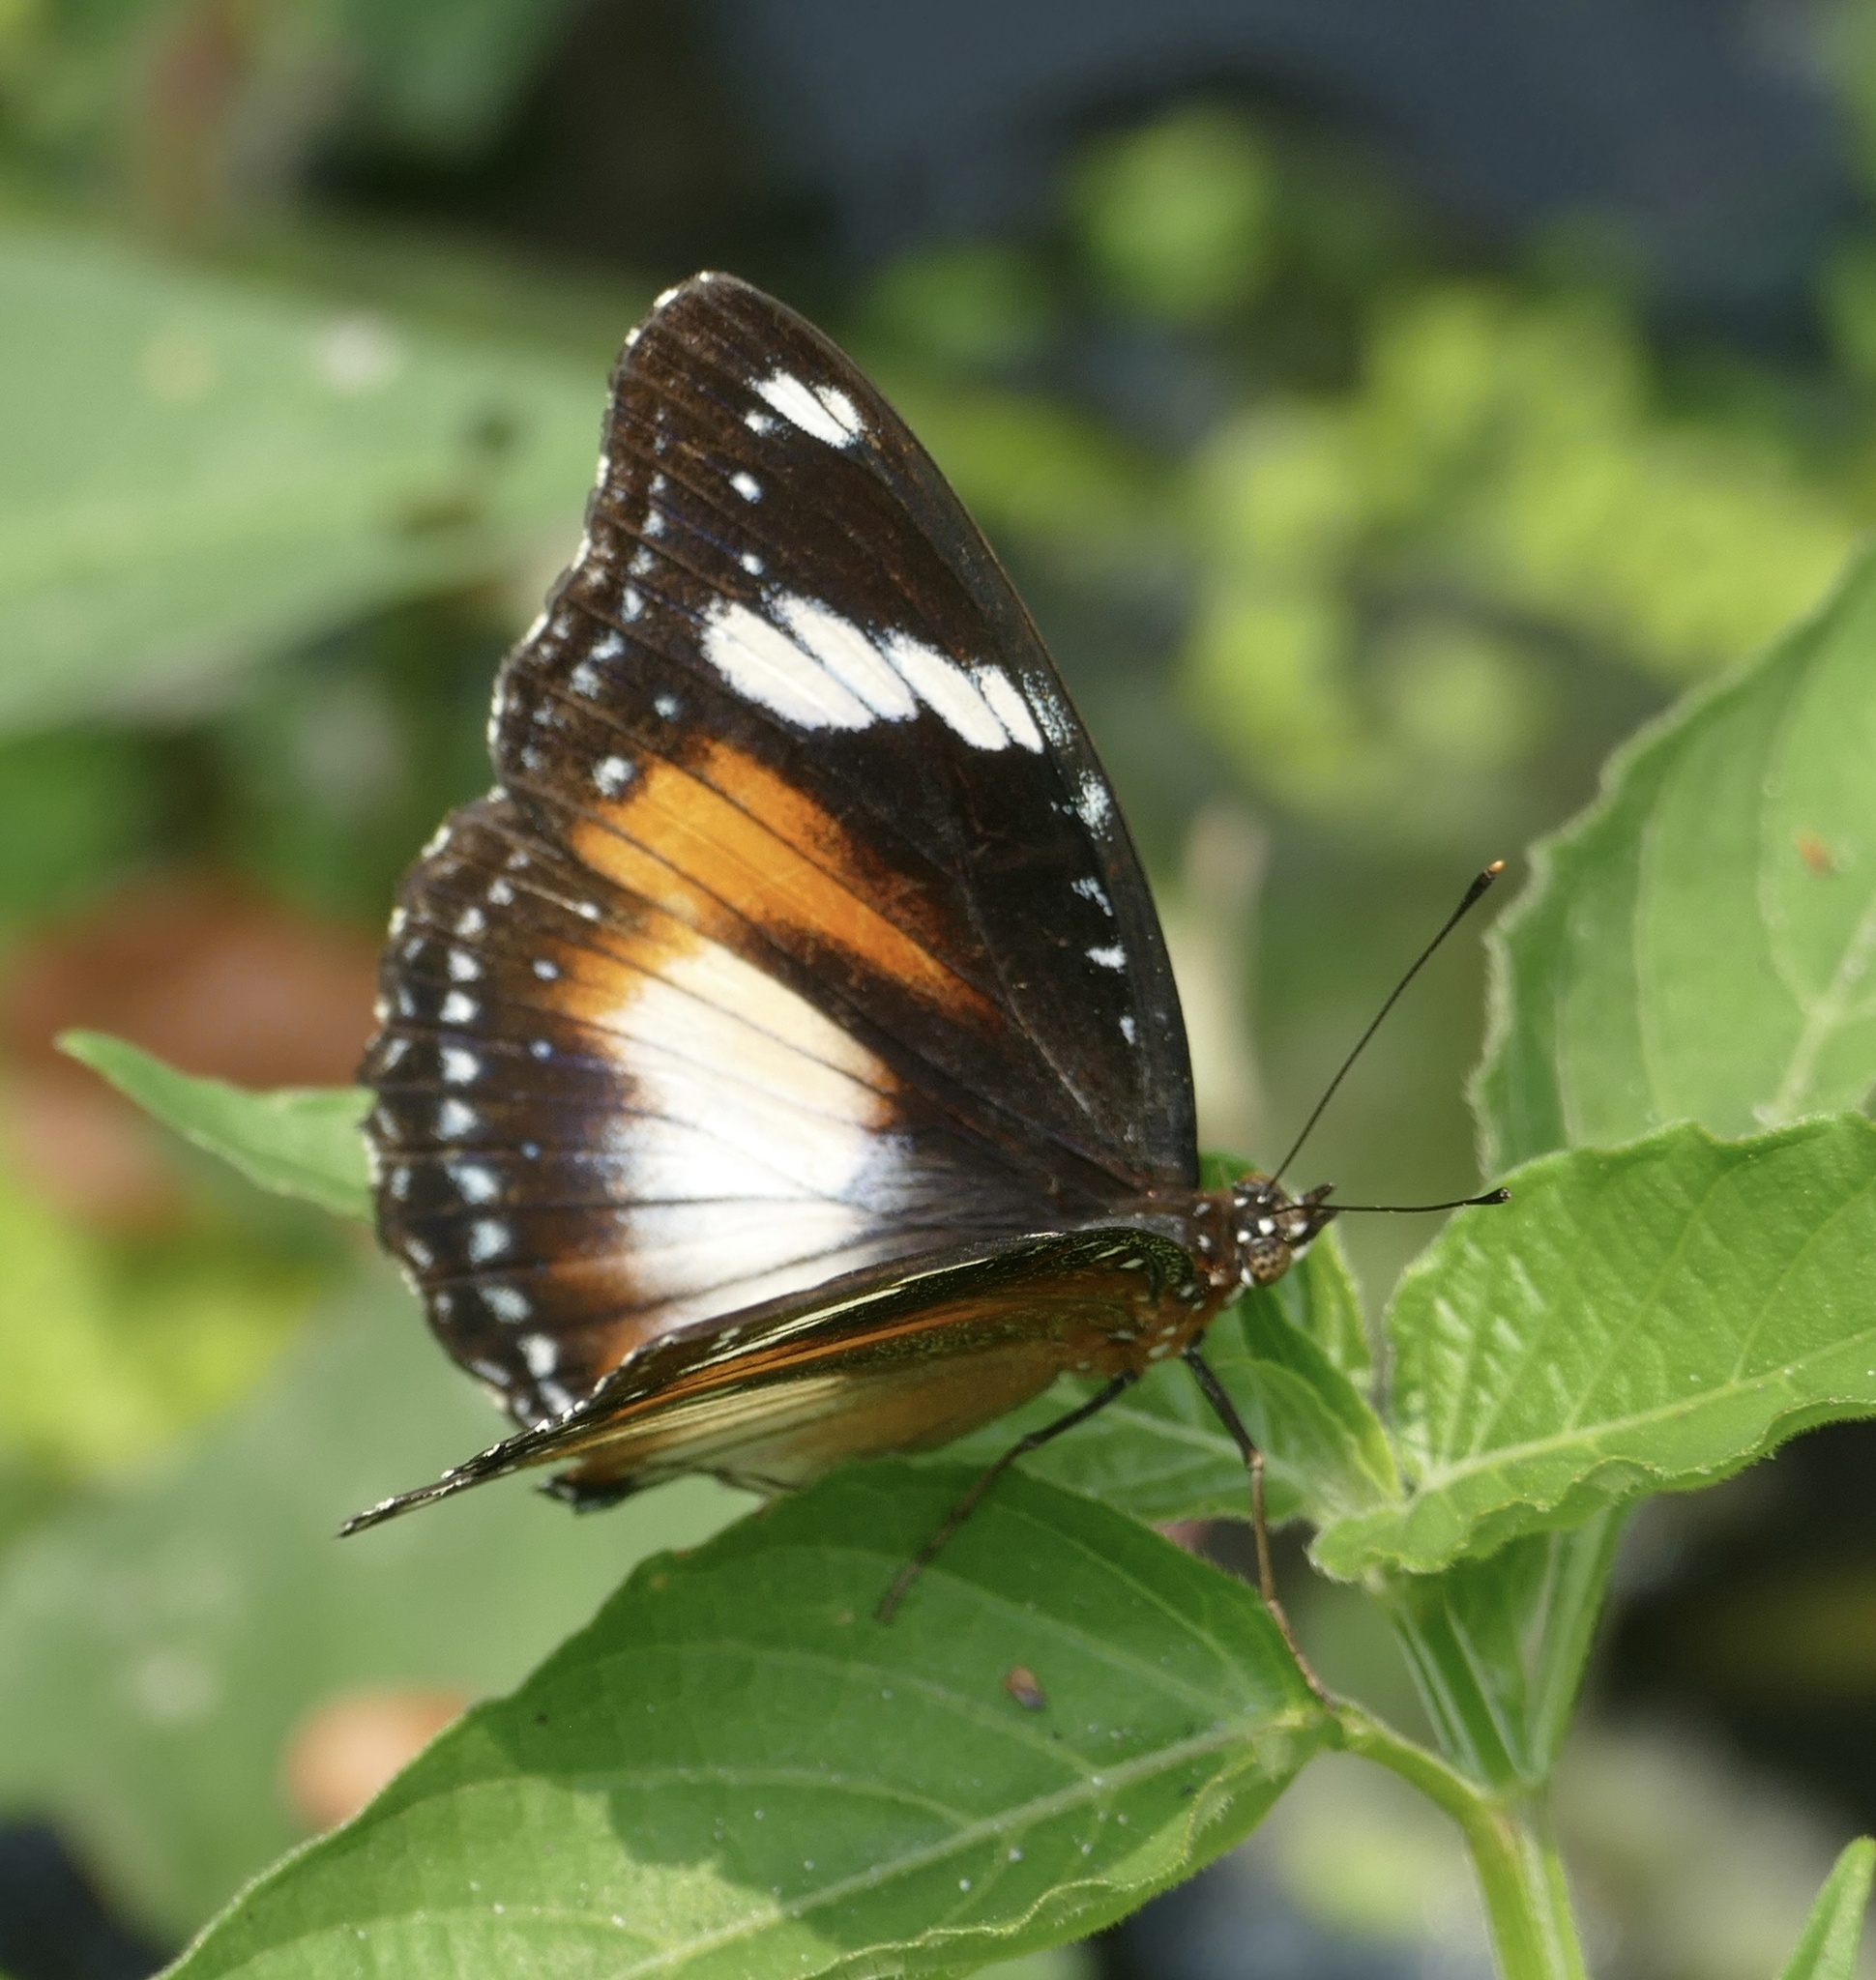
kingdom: Animalia
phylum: Arthropoda
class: Insecta
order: Lepidoptera
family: Nymphalidae
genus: Hypolimnas
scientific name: Hypolimnas bolina
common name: Great eggfly
